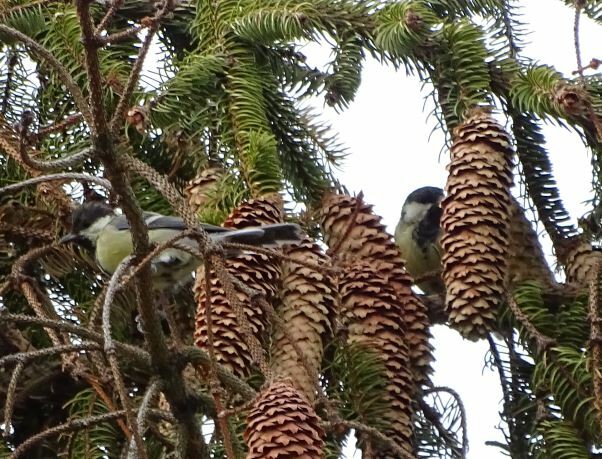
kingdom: Animalia
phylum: Chordata
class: Aves
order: Passeriformes
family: Paridae
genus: Parus
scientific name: Parus major
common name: Great tit
